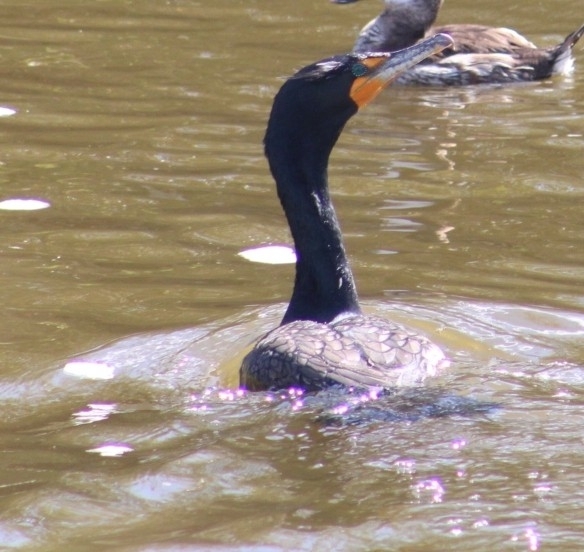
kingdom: Animalia
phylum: Chordata
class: Aves
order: Suliformes
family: Phalacrocoracidae
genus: Phalacrocorax
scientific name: Phalacrocorax auritus
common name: Double-crested cormorant
